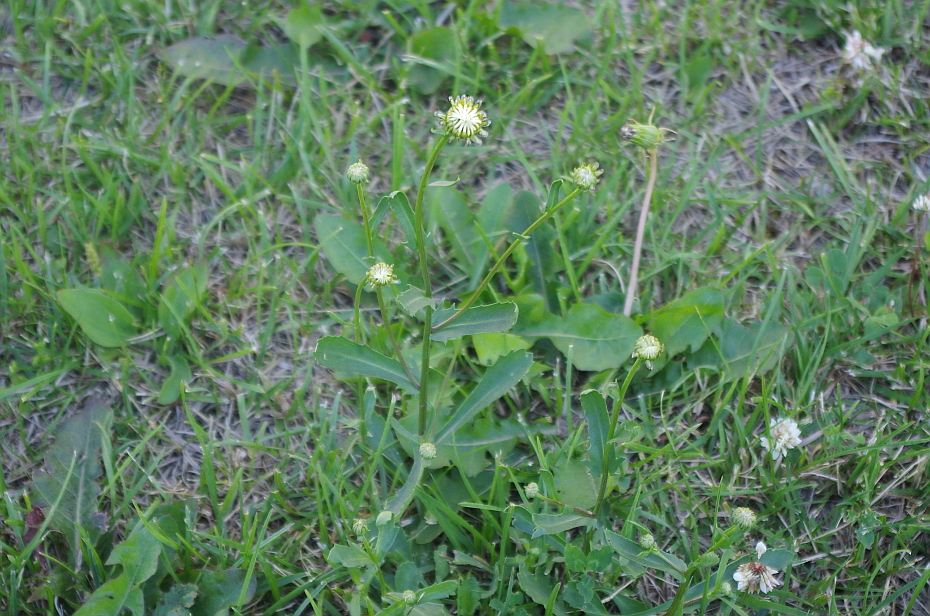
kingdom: Plantae
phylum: Tracheophyta
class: Magnoliopsida
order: Asterales
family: Asteraceae
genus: Leucanthemum
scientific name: Leucanthemum vulgare
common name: Oxeye daisy
